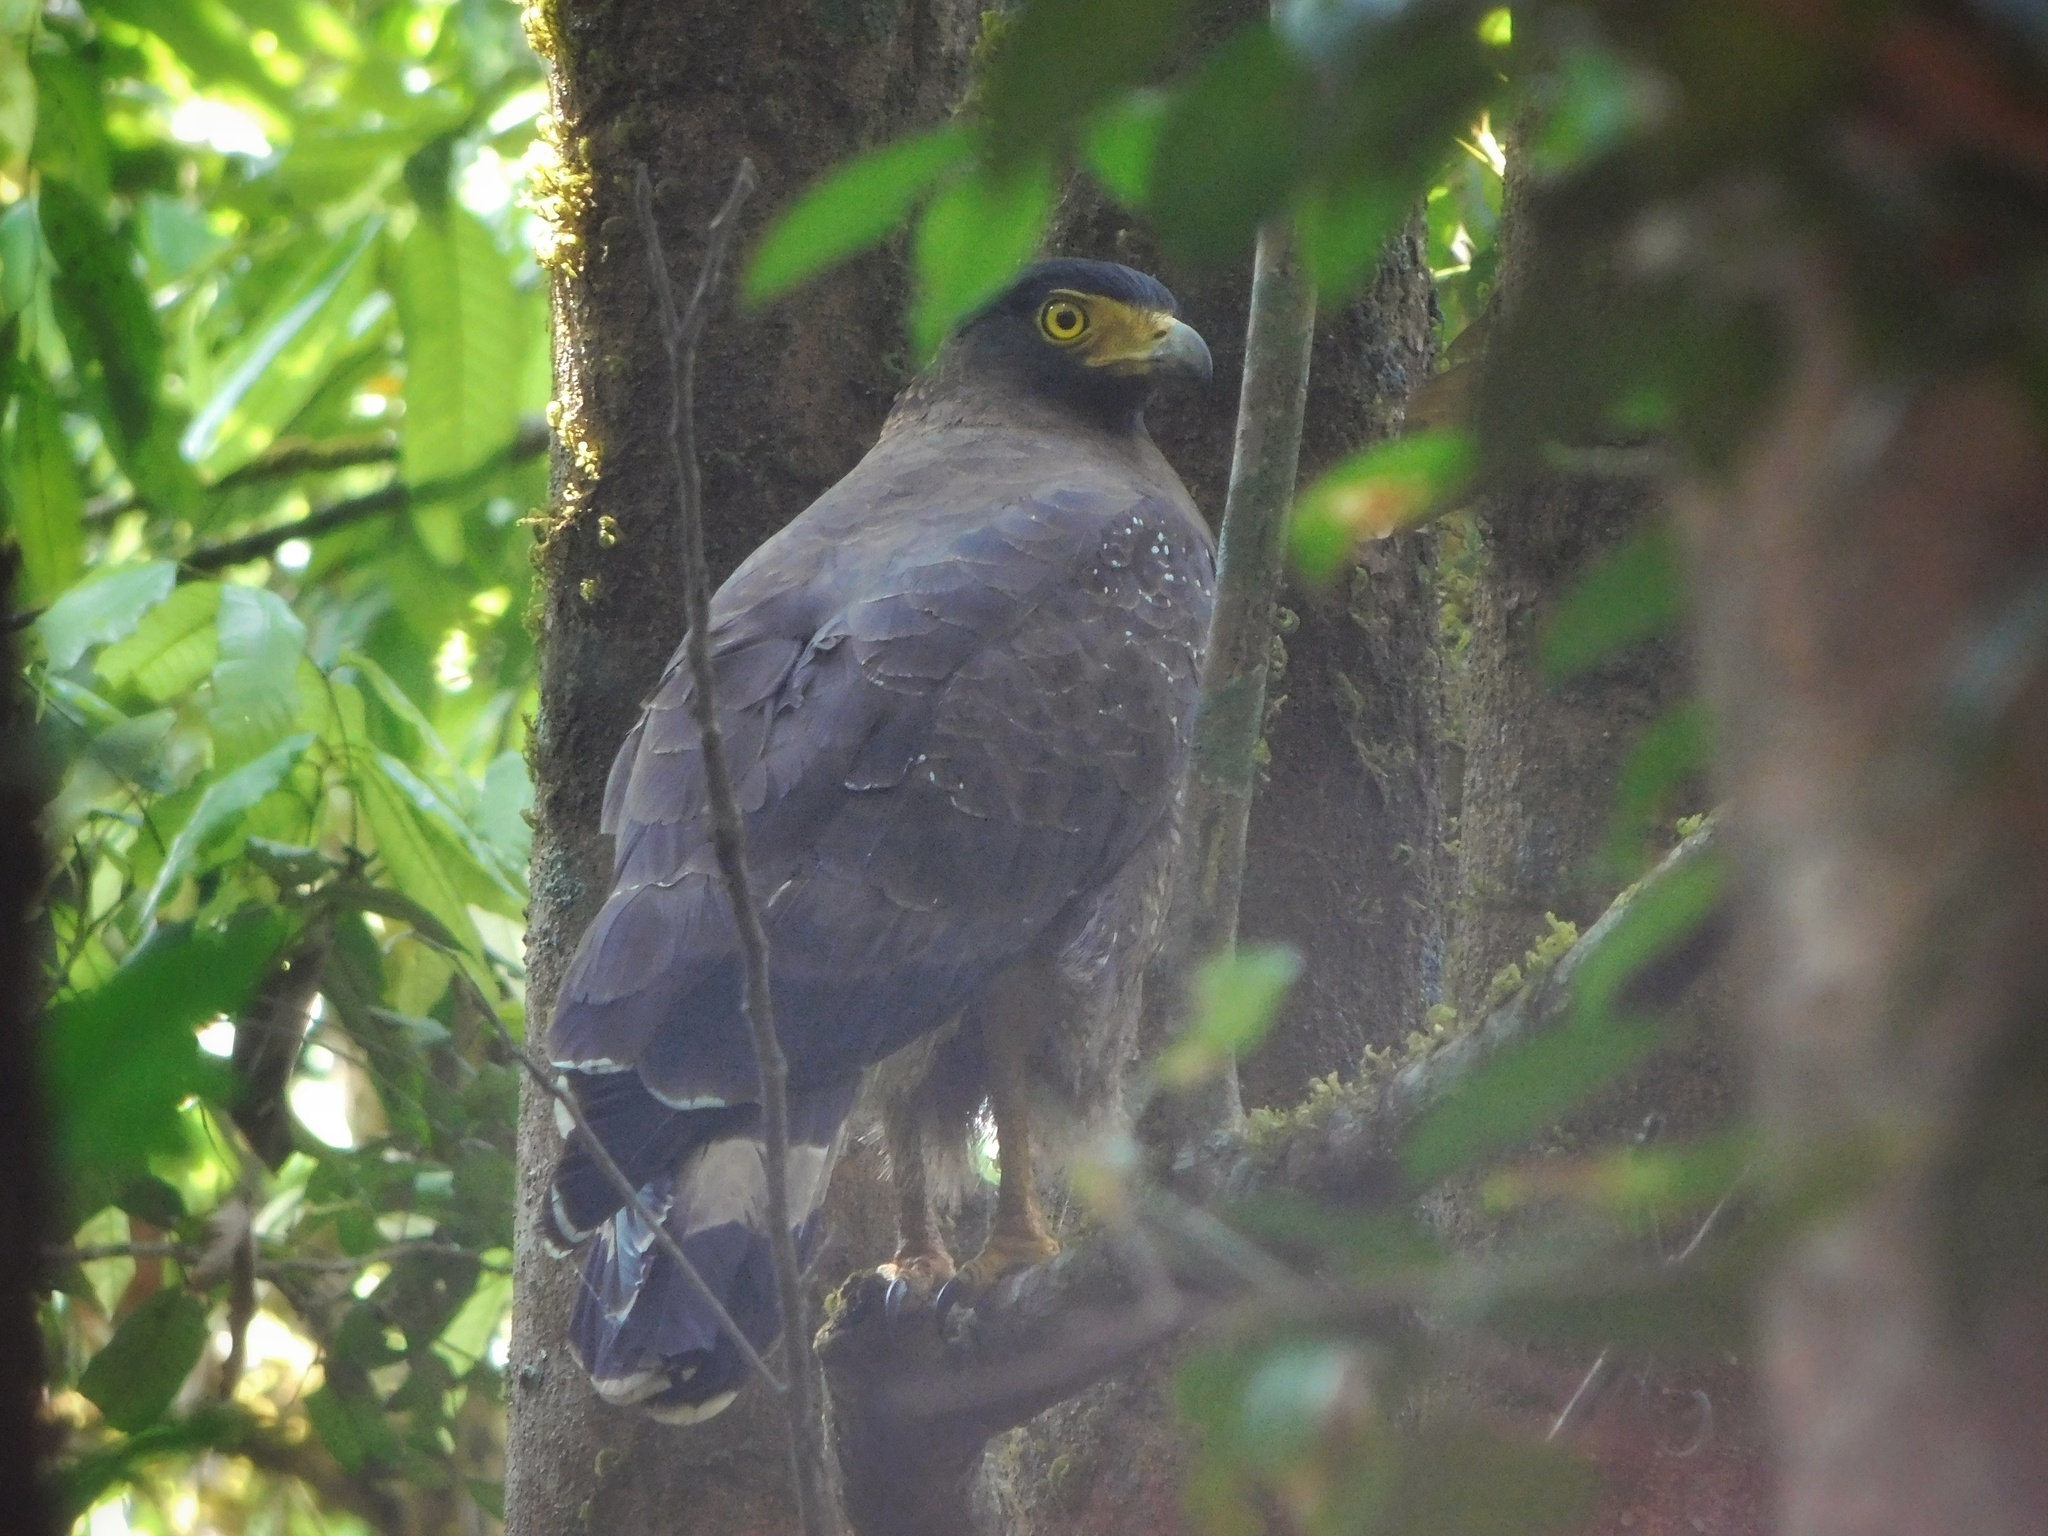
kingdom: Animalia
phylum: Chordata
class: Aves
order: Accipitriformes
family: Accipitridae
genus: Spilornis
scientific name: Spilornis cheela
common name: Crested serpent eagle
